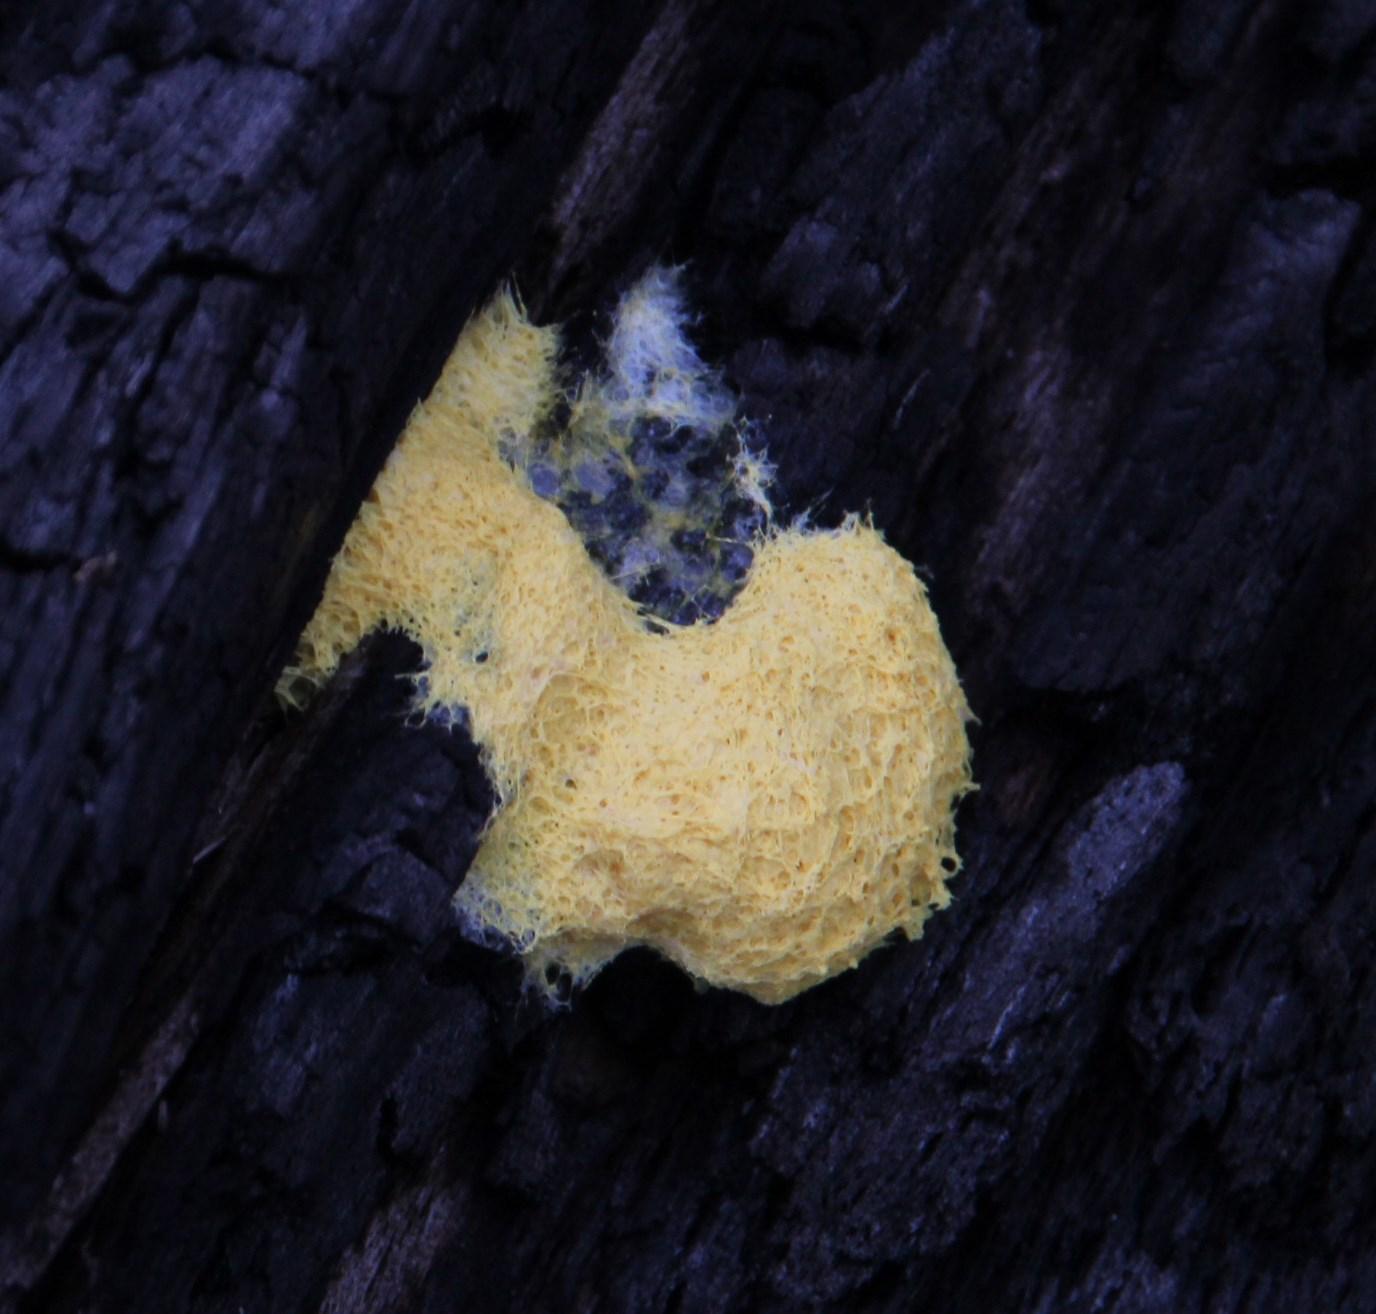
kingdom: Protozoa
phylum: Mycetozoa
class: Myxomycetes
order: Physarales
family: Physaraceae
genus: Fuligo
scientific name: Fuligo septica
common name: Dog vomit slime mold
